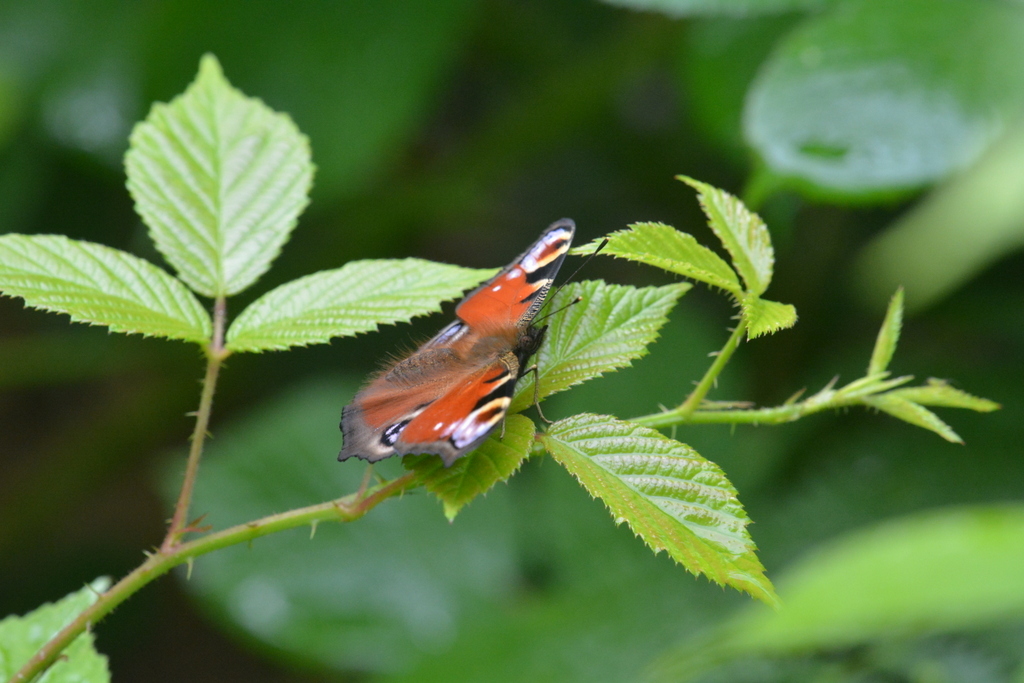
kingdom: Animalia
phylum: Arthropoda
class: Insecta
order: Lepidoptera
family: Nymphalidae
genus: Aglais
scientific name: Aglais io
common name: Peacock
